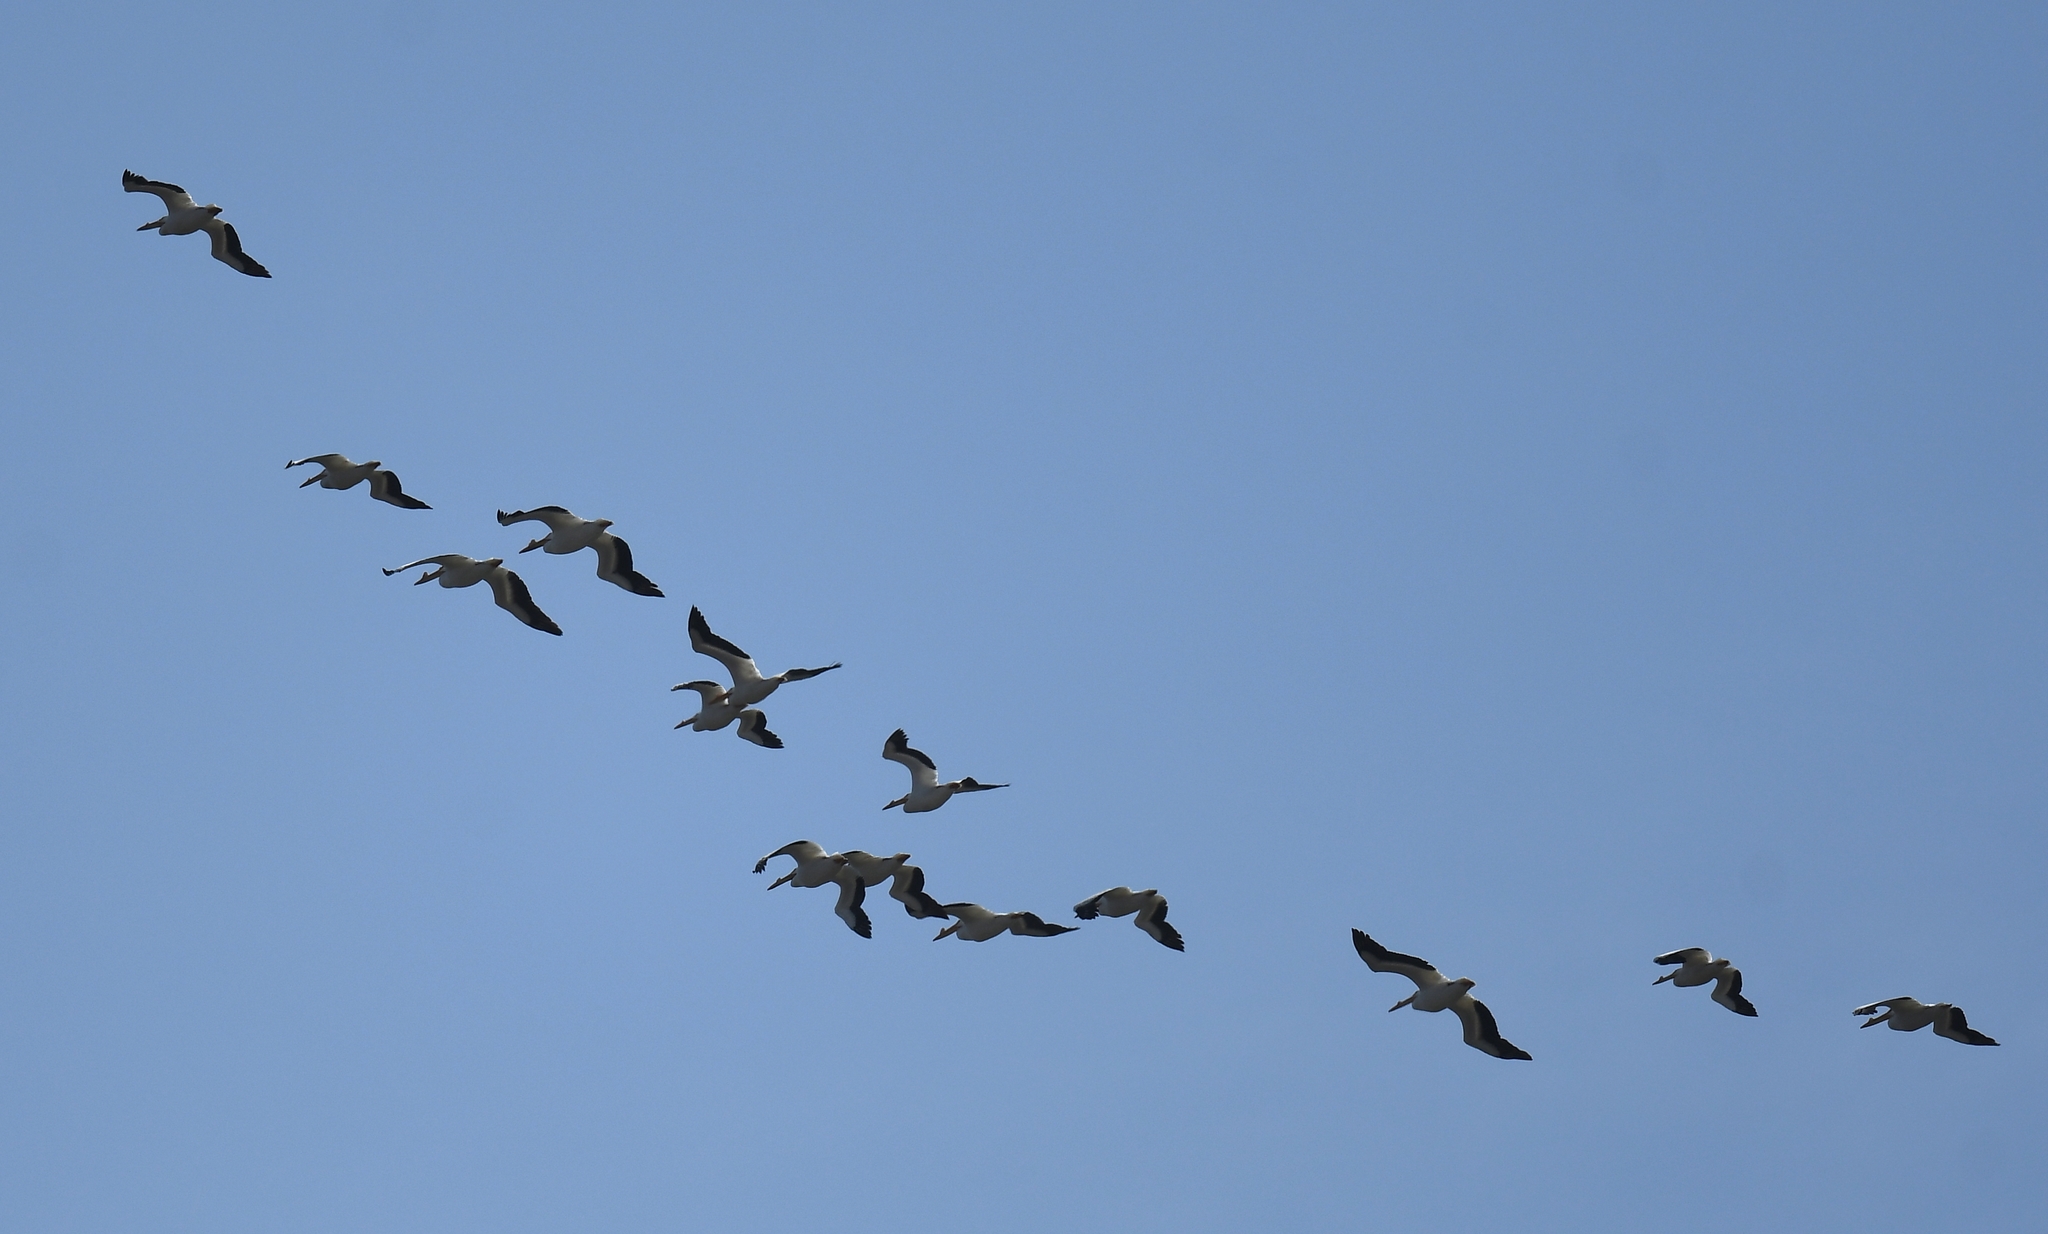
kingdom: Animalia
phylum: Chordata
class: Aves
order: Pelecaniformes
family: Pelecanidae
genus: Pelecanus
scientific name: Pelecanus erythrorhynchos
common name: American white pelican
